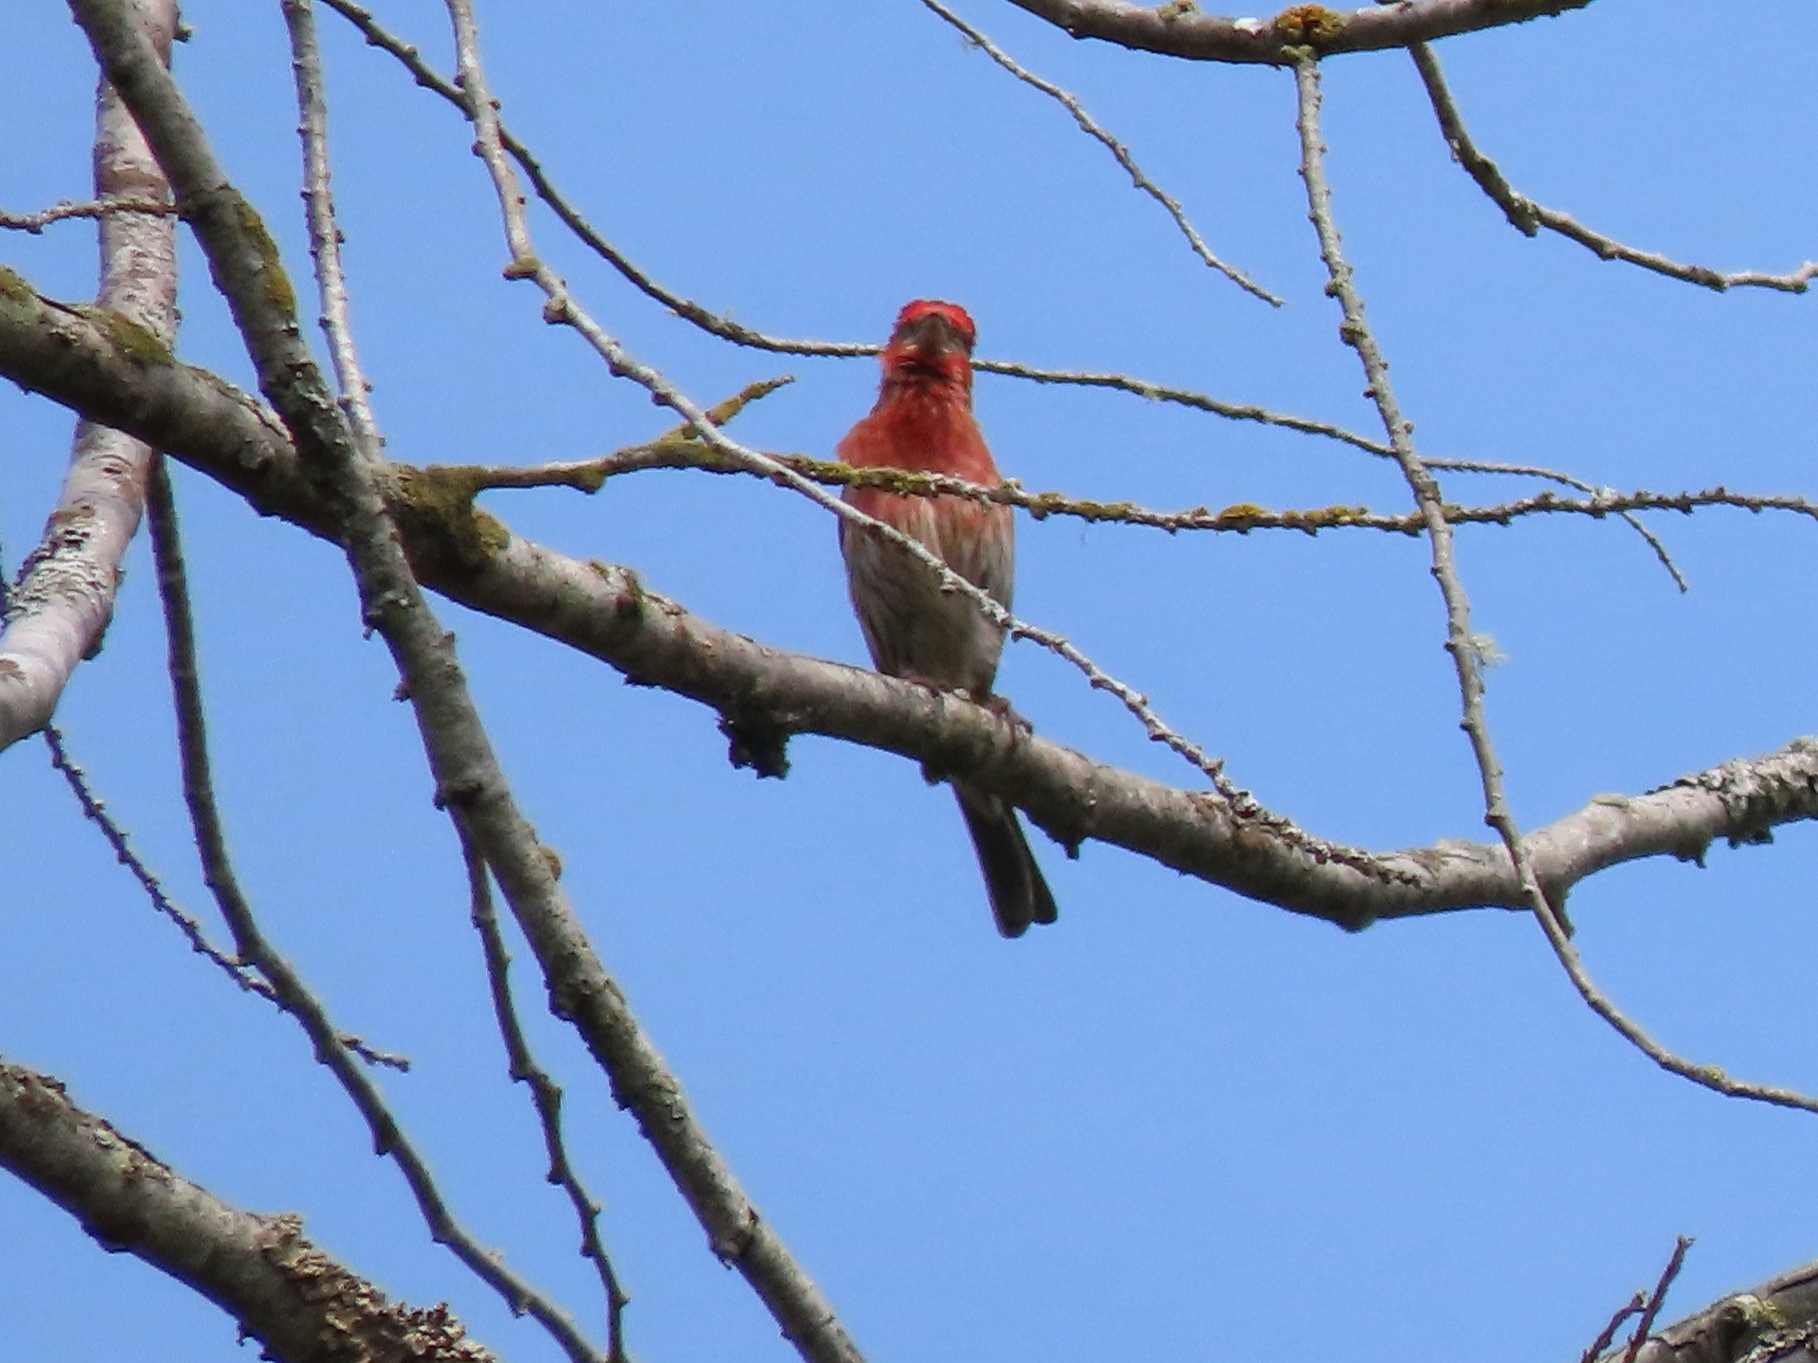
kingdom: Animalia
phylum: Chordata
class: Aves
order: Passeriformes
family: Fringillidae
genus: Haemorhous
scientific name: Haemorhous mexicanus
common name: House finch
